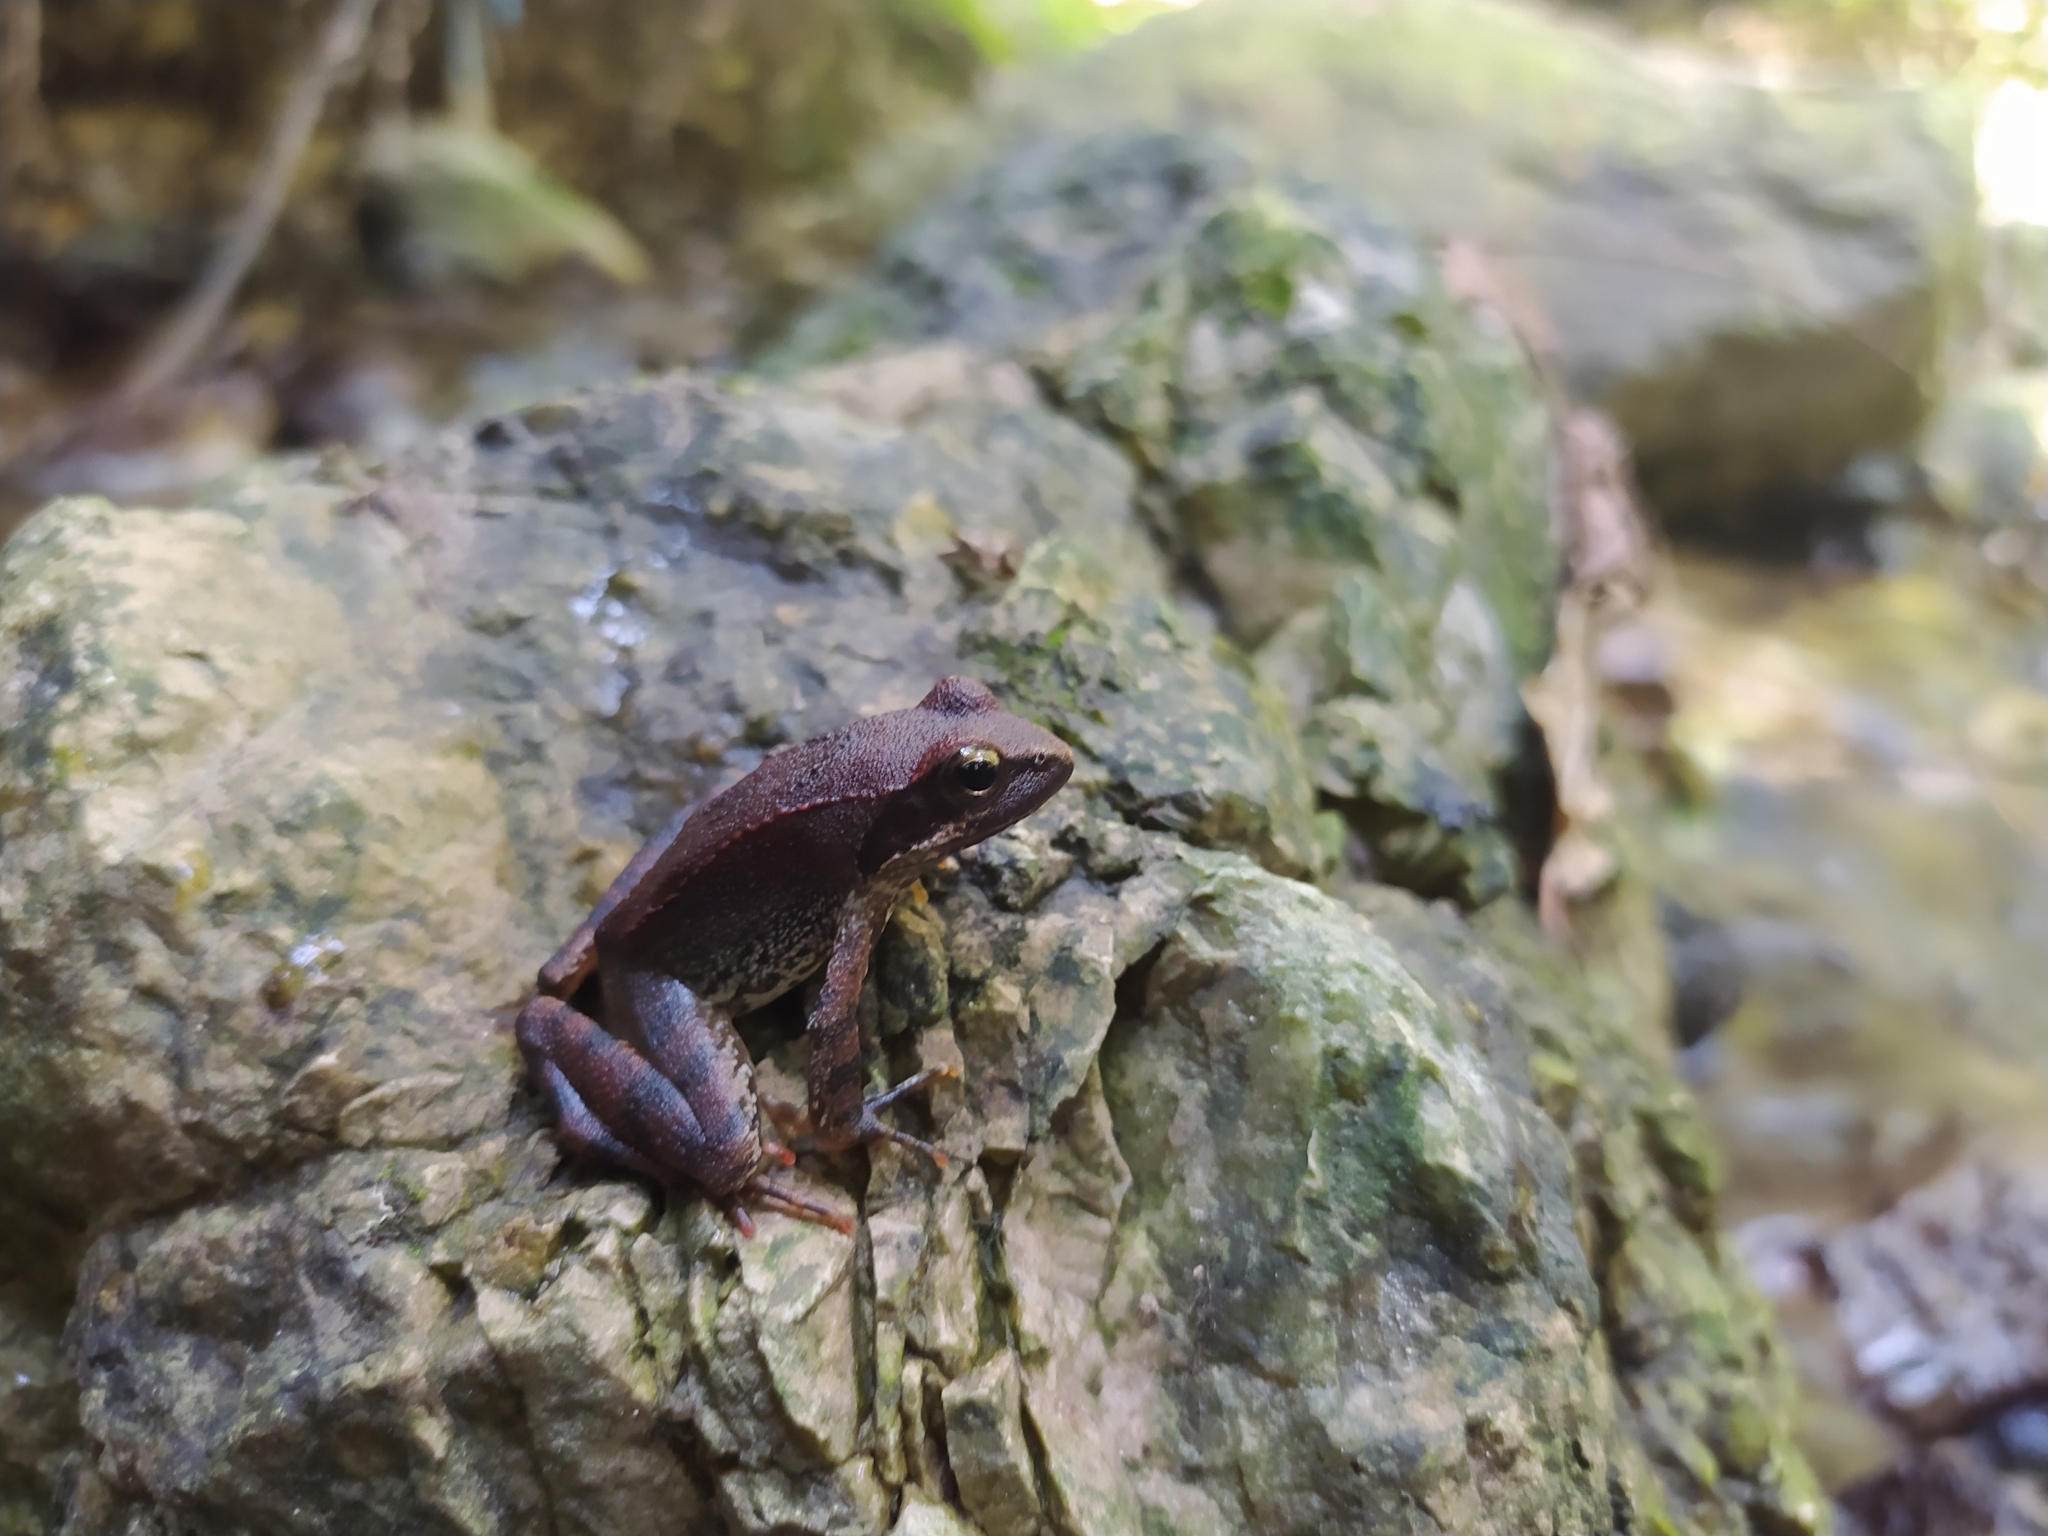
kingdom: Animalia
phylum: Chordata
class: Amphibia
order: Anura
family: Ranidae
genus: Rana
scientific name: Rana italica
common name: Italian stream frog
